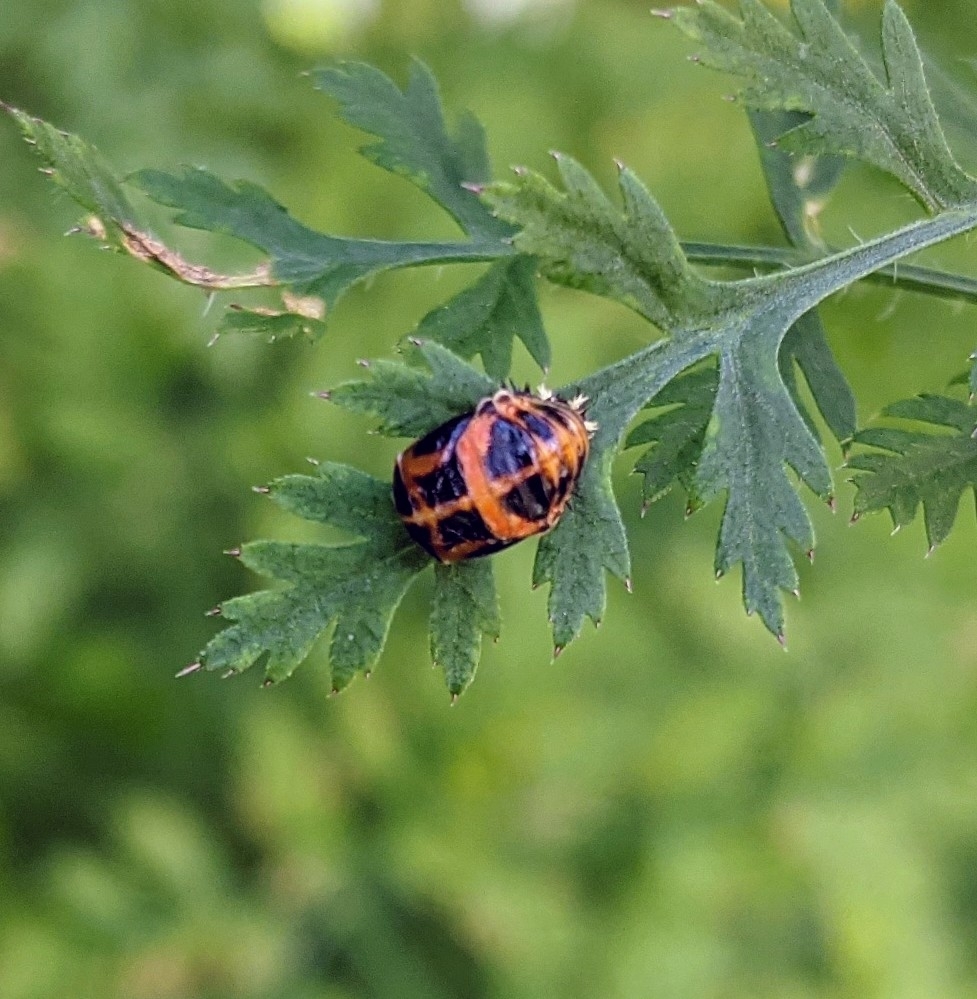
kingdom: Animalia
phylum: Arthropoda
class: Insecta
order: Coleoptera
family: Coccinellidae
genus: Harmonia
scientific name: Harmonia axyridis
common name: Harlequin ladybird
